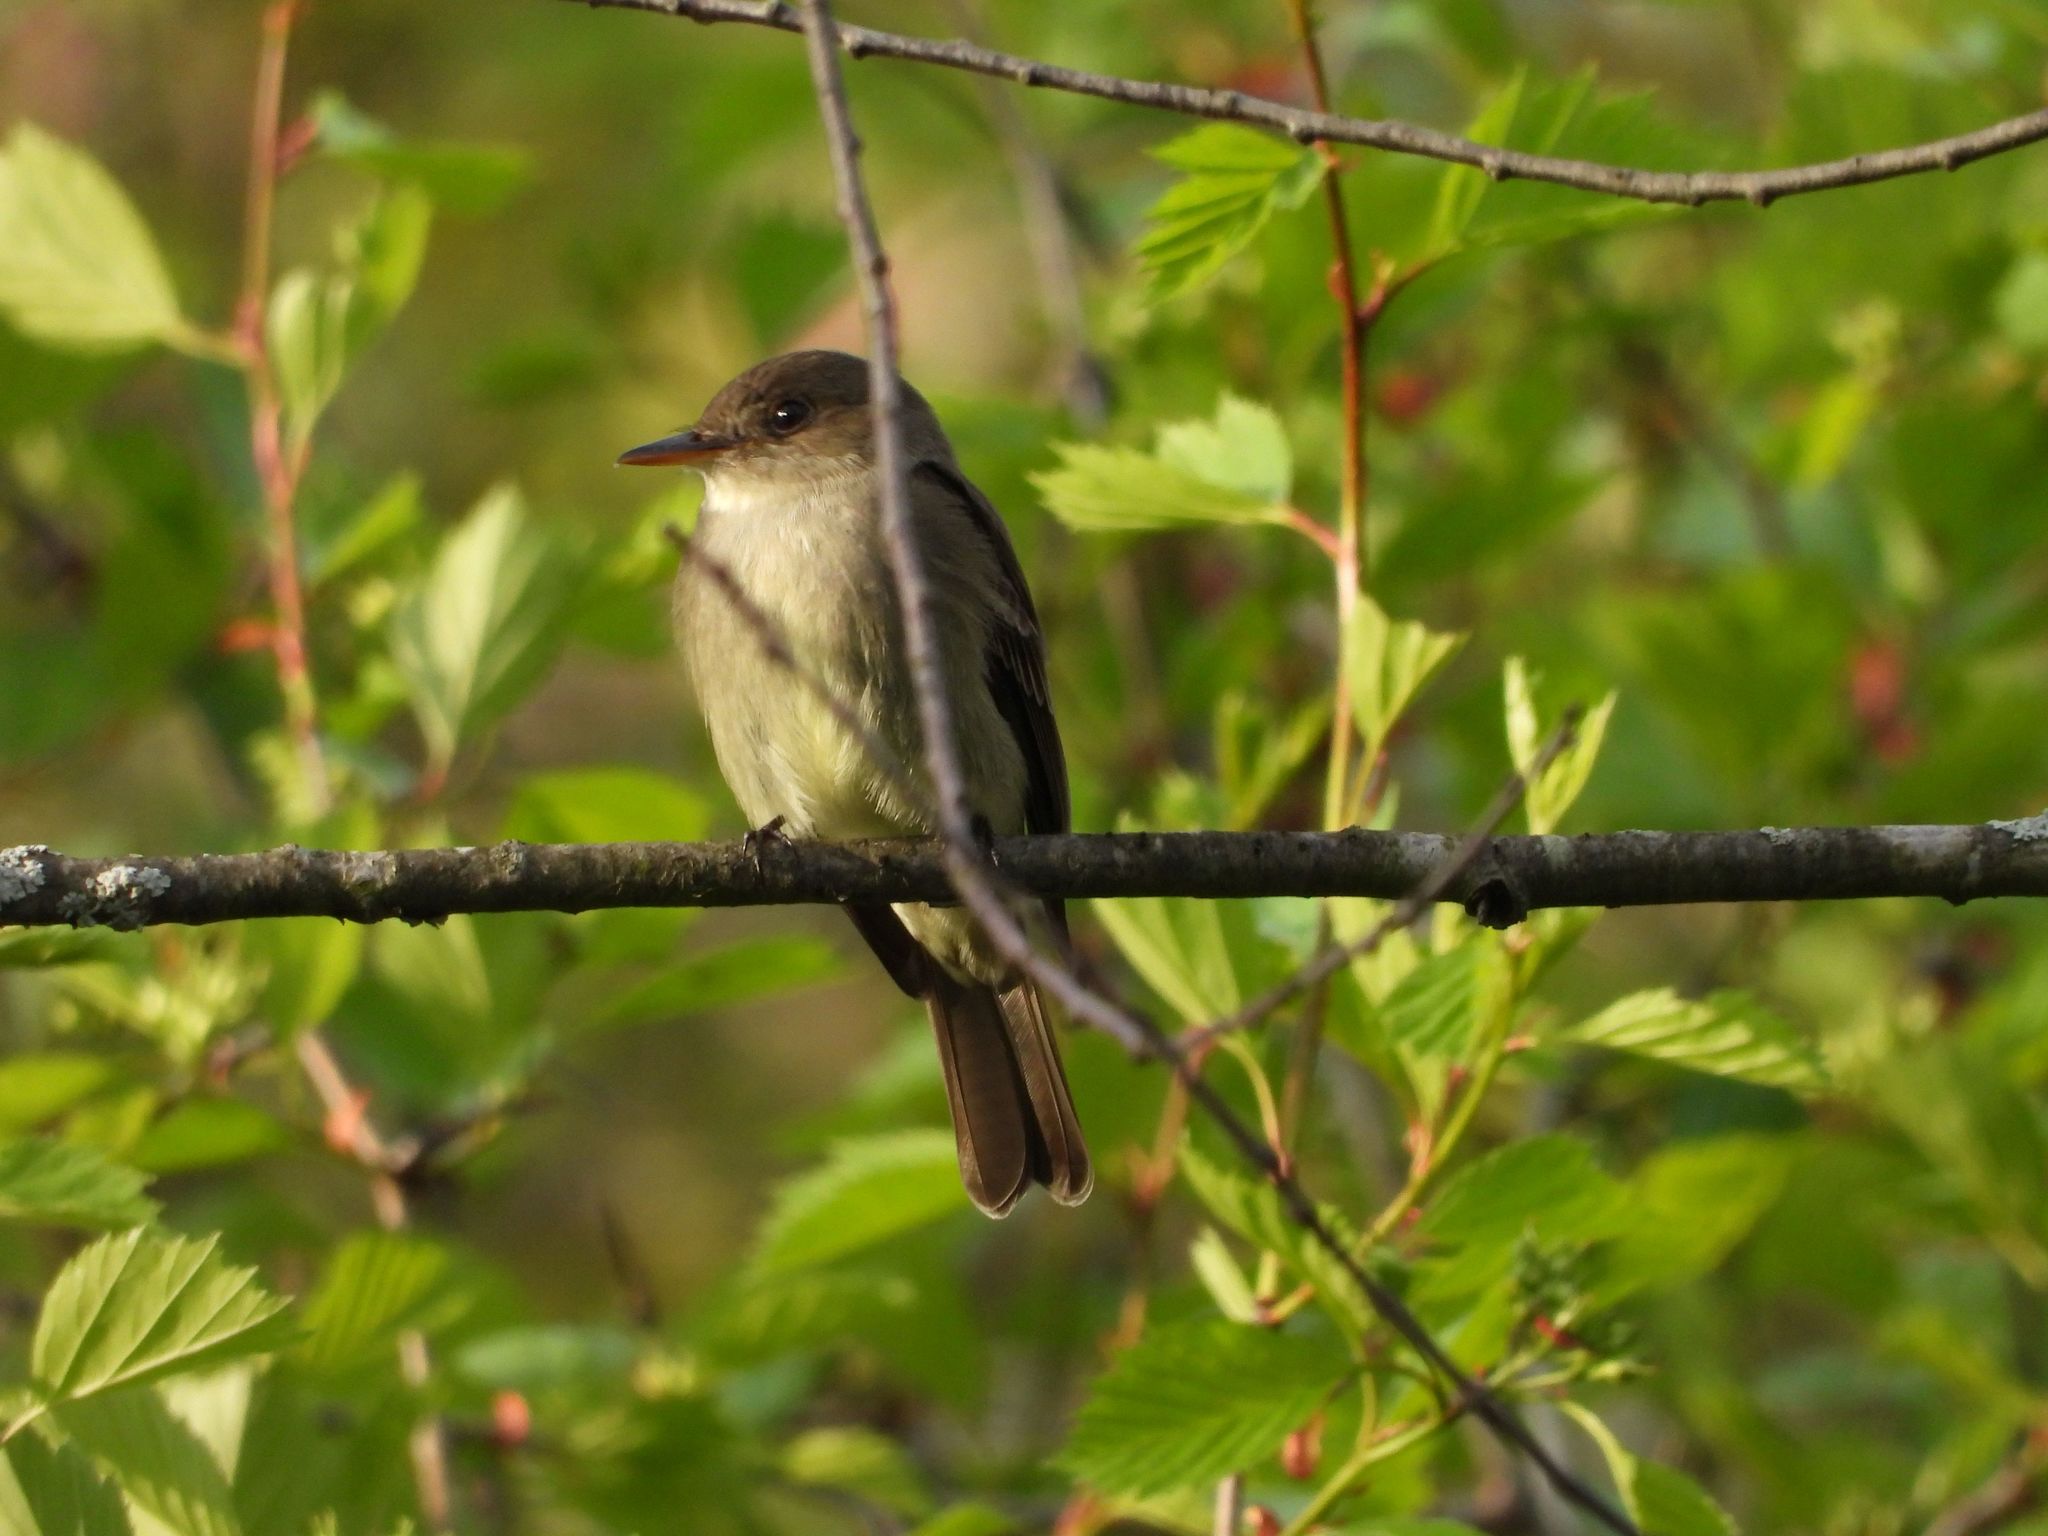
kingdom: Animalia
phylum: Chordata
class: Aves
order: Passeriformes
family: Tyrannidae
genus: Sayornis
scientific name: Sayornis phoebe
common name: Eastern phoebe
